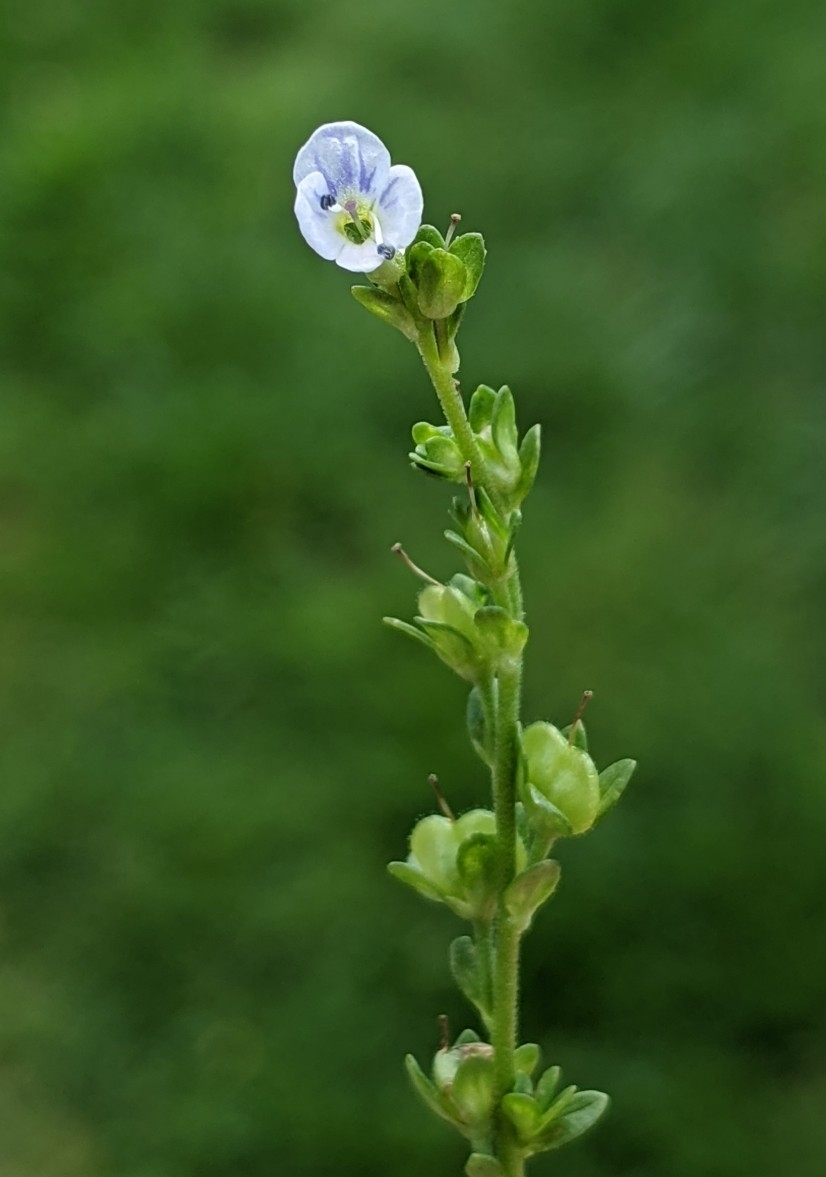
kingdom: Plantae
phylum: Tracheophyta
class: Magnoliopsida
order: Lamiales
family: Plantaginaceae
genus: Veronica
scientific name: Veronica serpyllifolia
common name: Thyme-leaved speedwell
